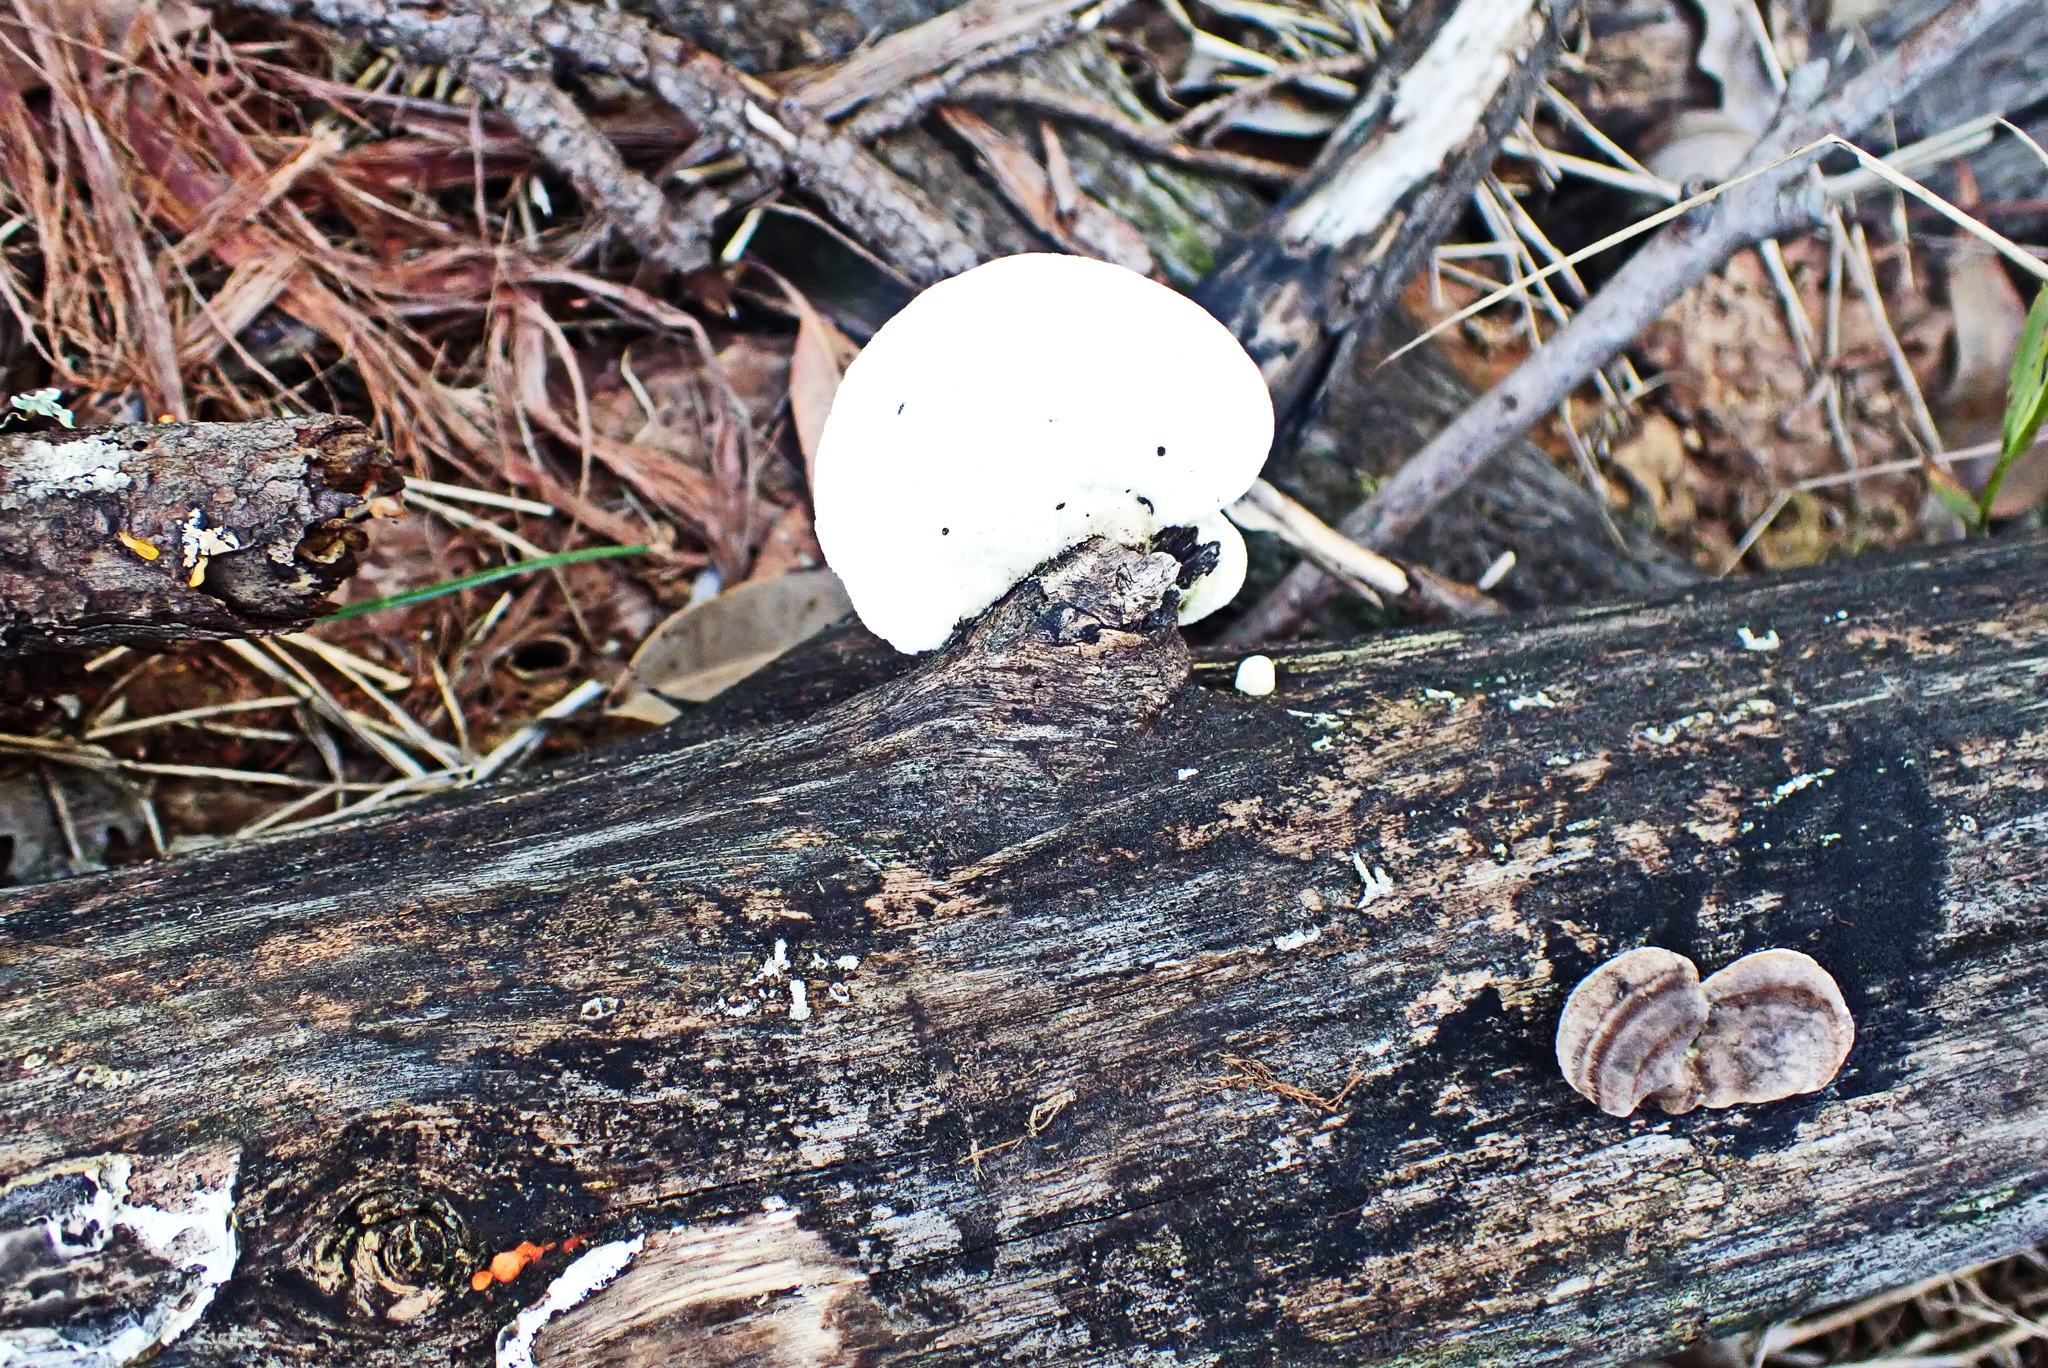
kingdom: Fungi
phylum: Basidiomycota
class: Agaricomycetes
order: Polyporales
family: Polyporaceae
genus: Trametes
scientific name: Trametes elegans
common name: White maze polypore
